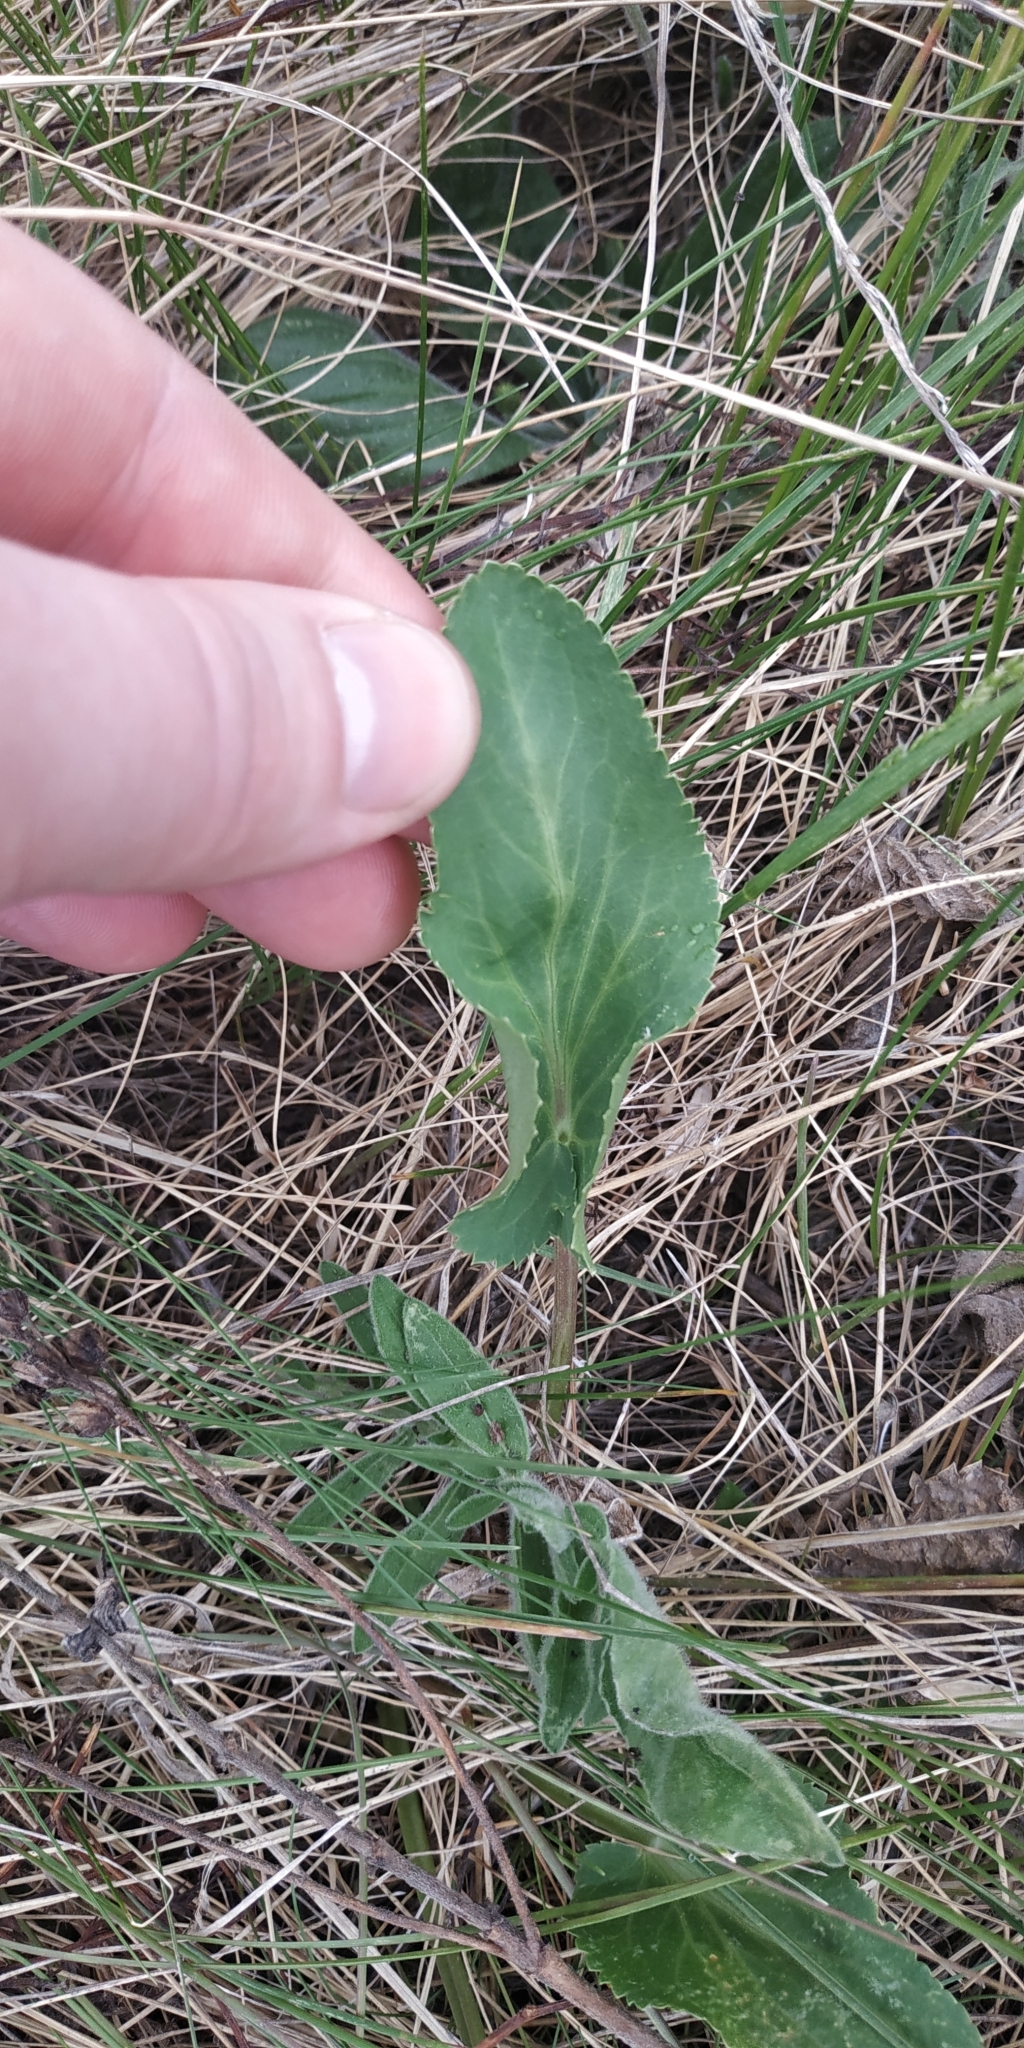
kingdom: Plantae
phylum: Tracheophyta
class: Magnoliopsida
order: Apiales
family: Apiaceae
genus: Eryngium
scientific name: Eryngium planum
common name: Blue eryngo
